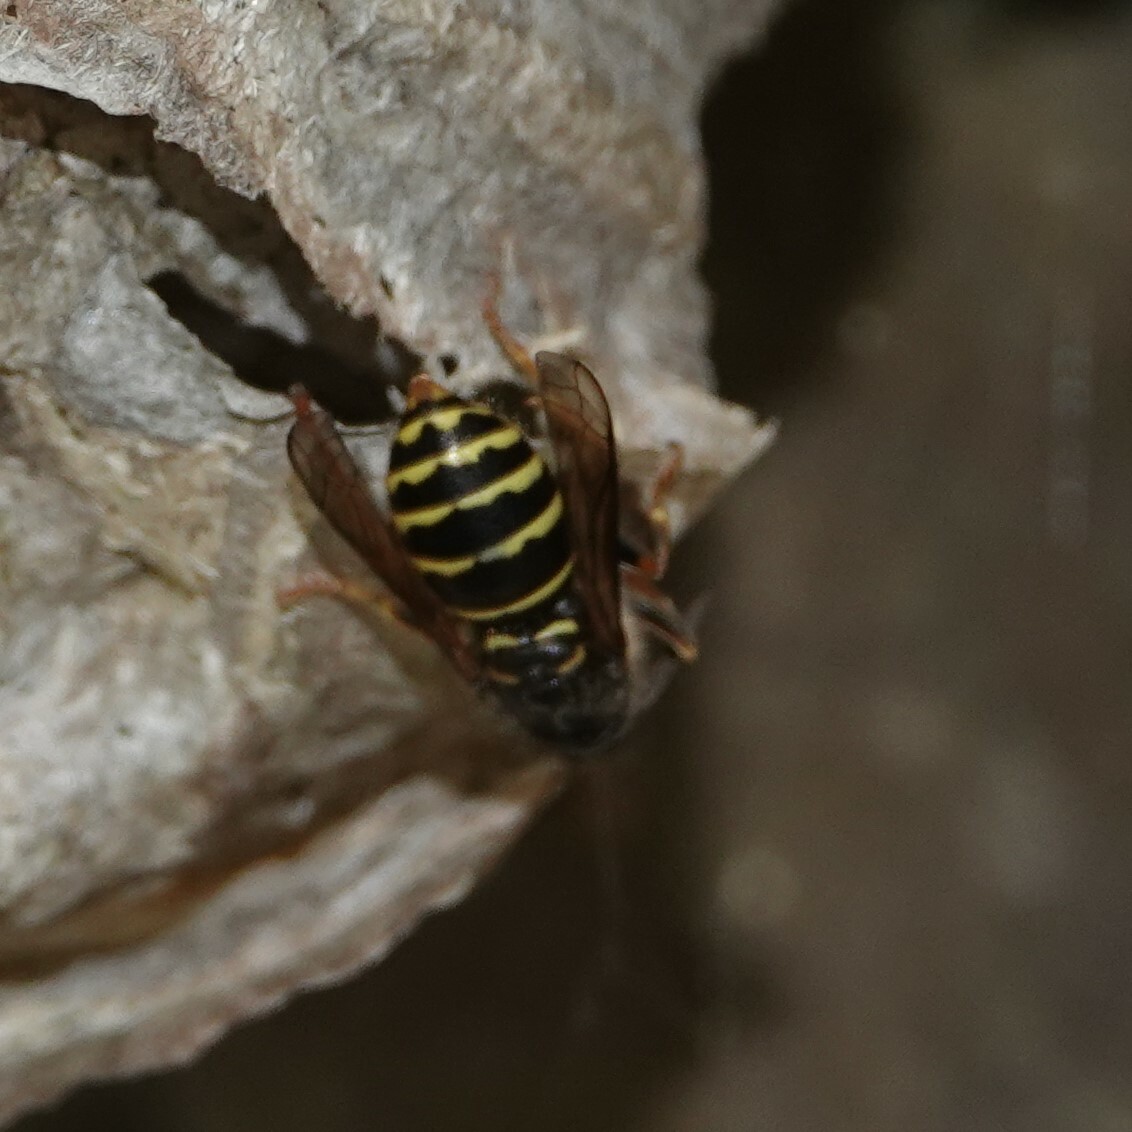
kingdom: Animalia
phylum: Arthropoda
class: Insecta
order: Hymenoptera
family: Vespidae
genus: Dolichovespula
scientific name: Dolichovespula media
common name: Median wasp
